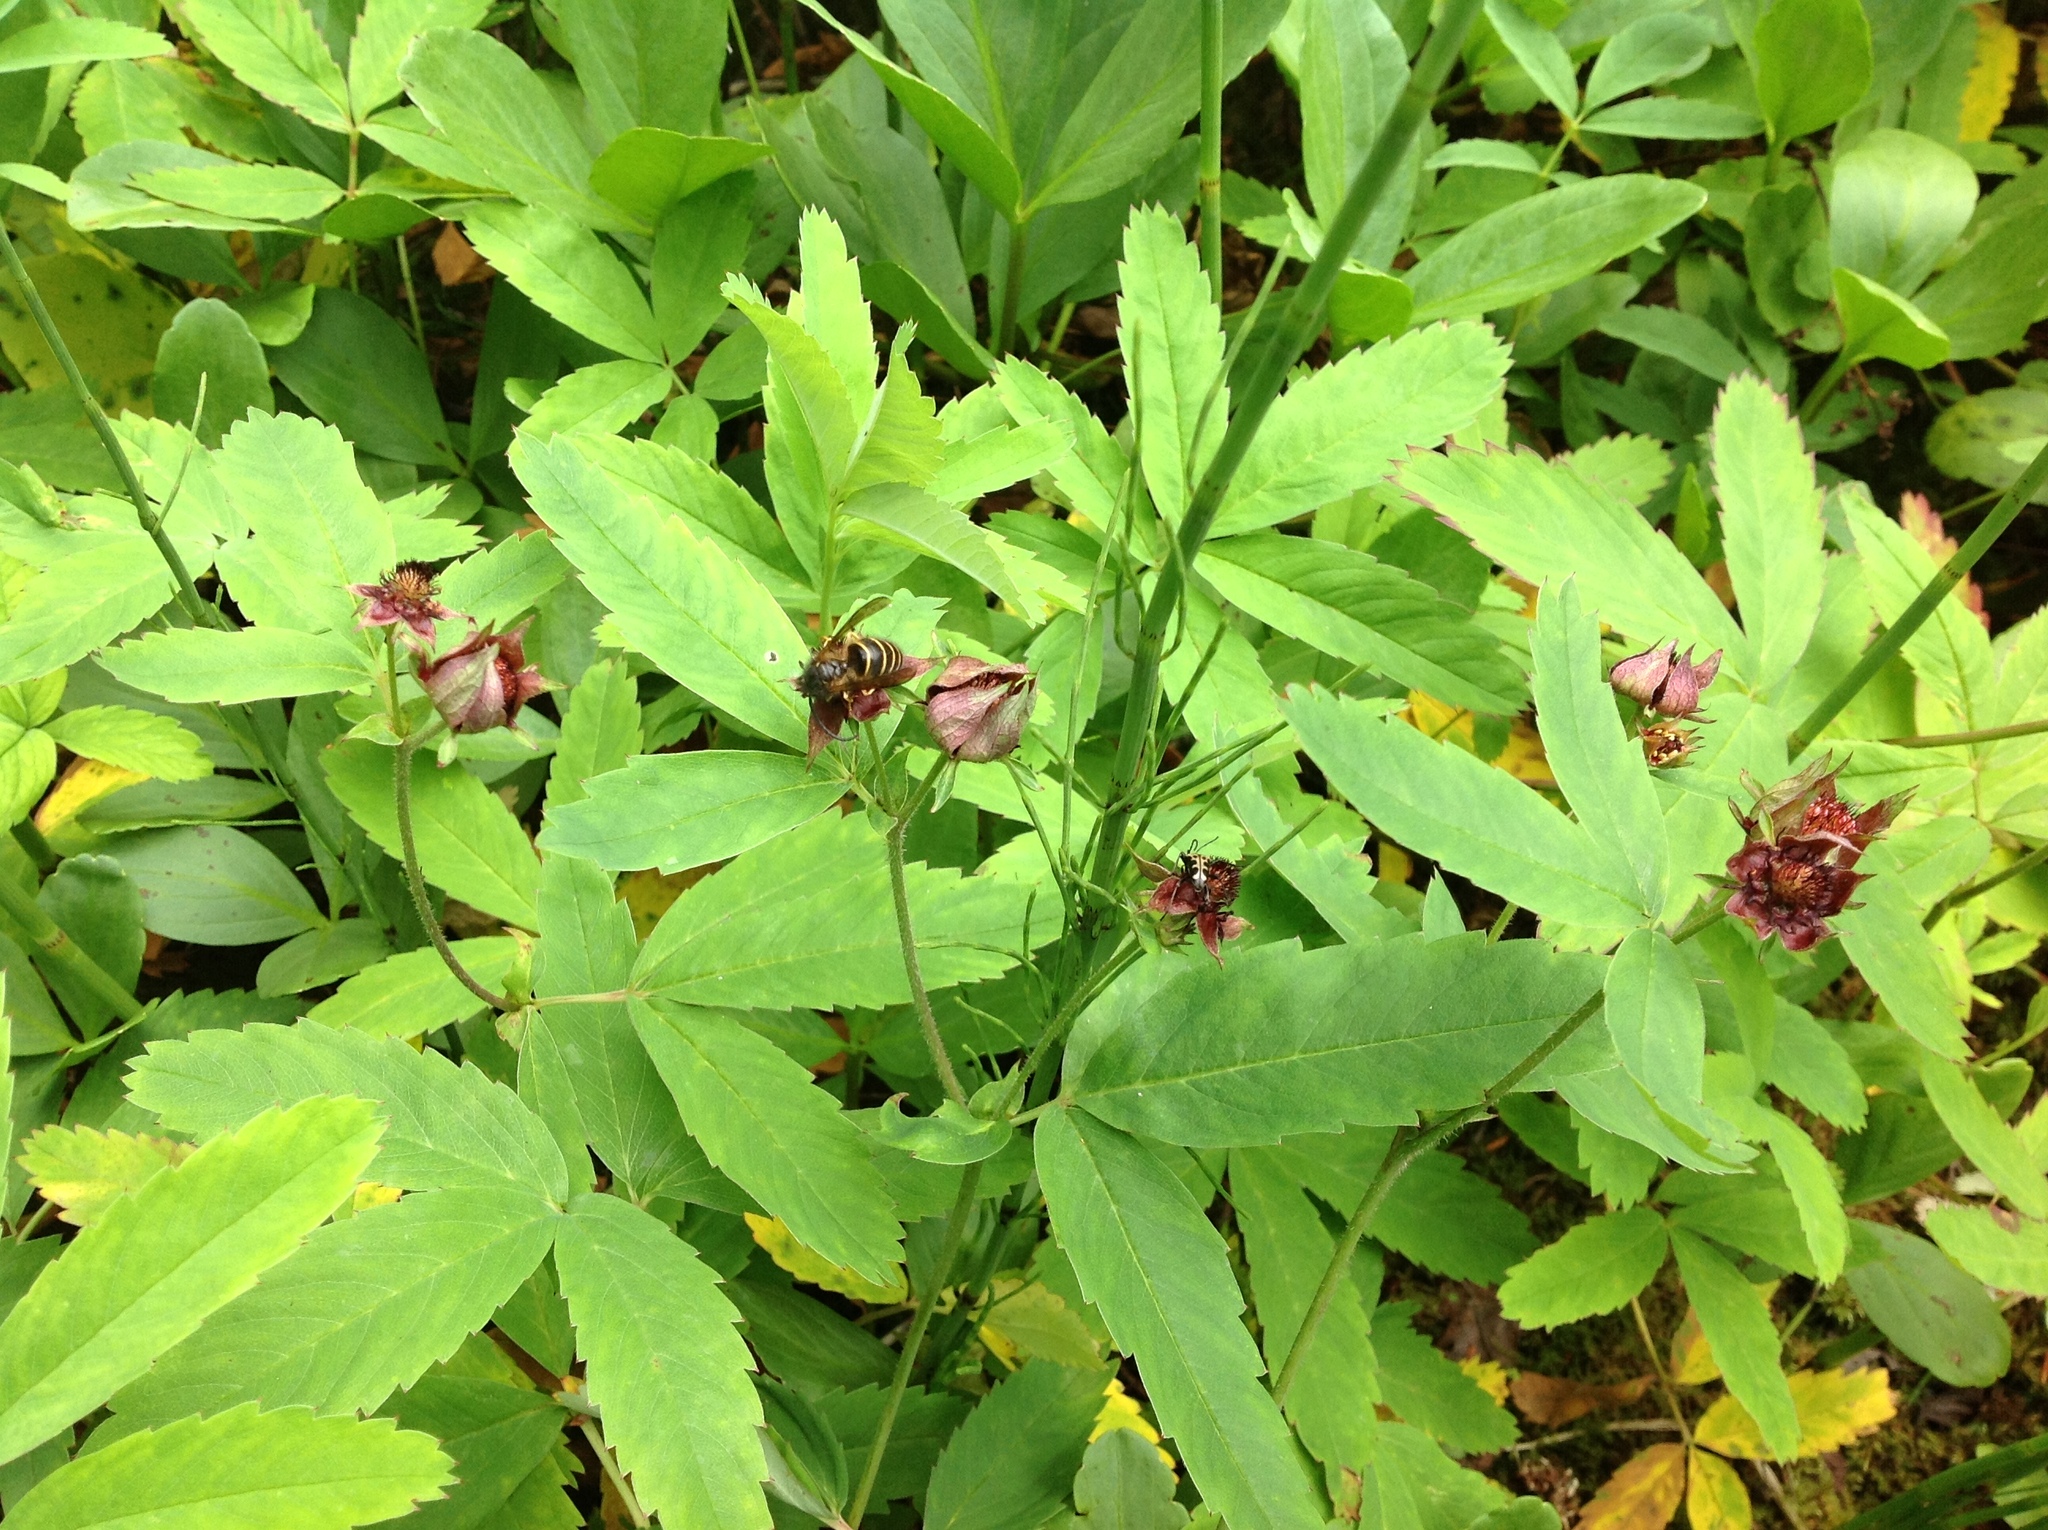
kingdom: Plantae
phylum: Tracheophyta
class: Magnoliopsida
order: Rosales
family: Rosaceae
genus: Comarum
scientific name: Comarum palustre
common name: Marsh cinquefoil
